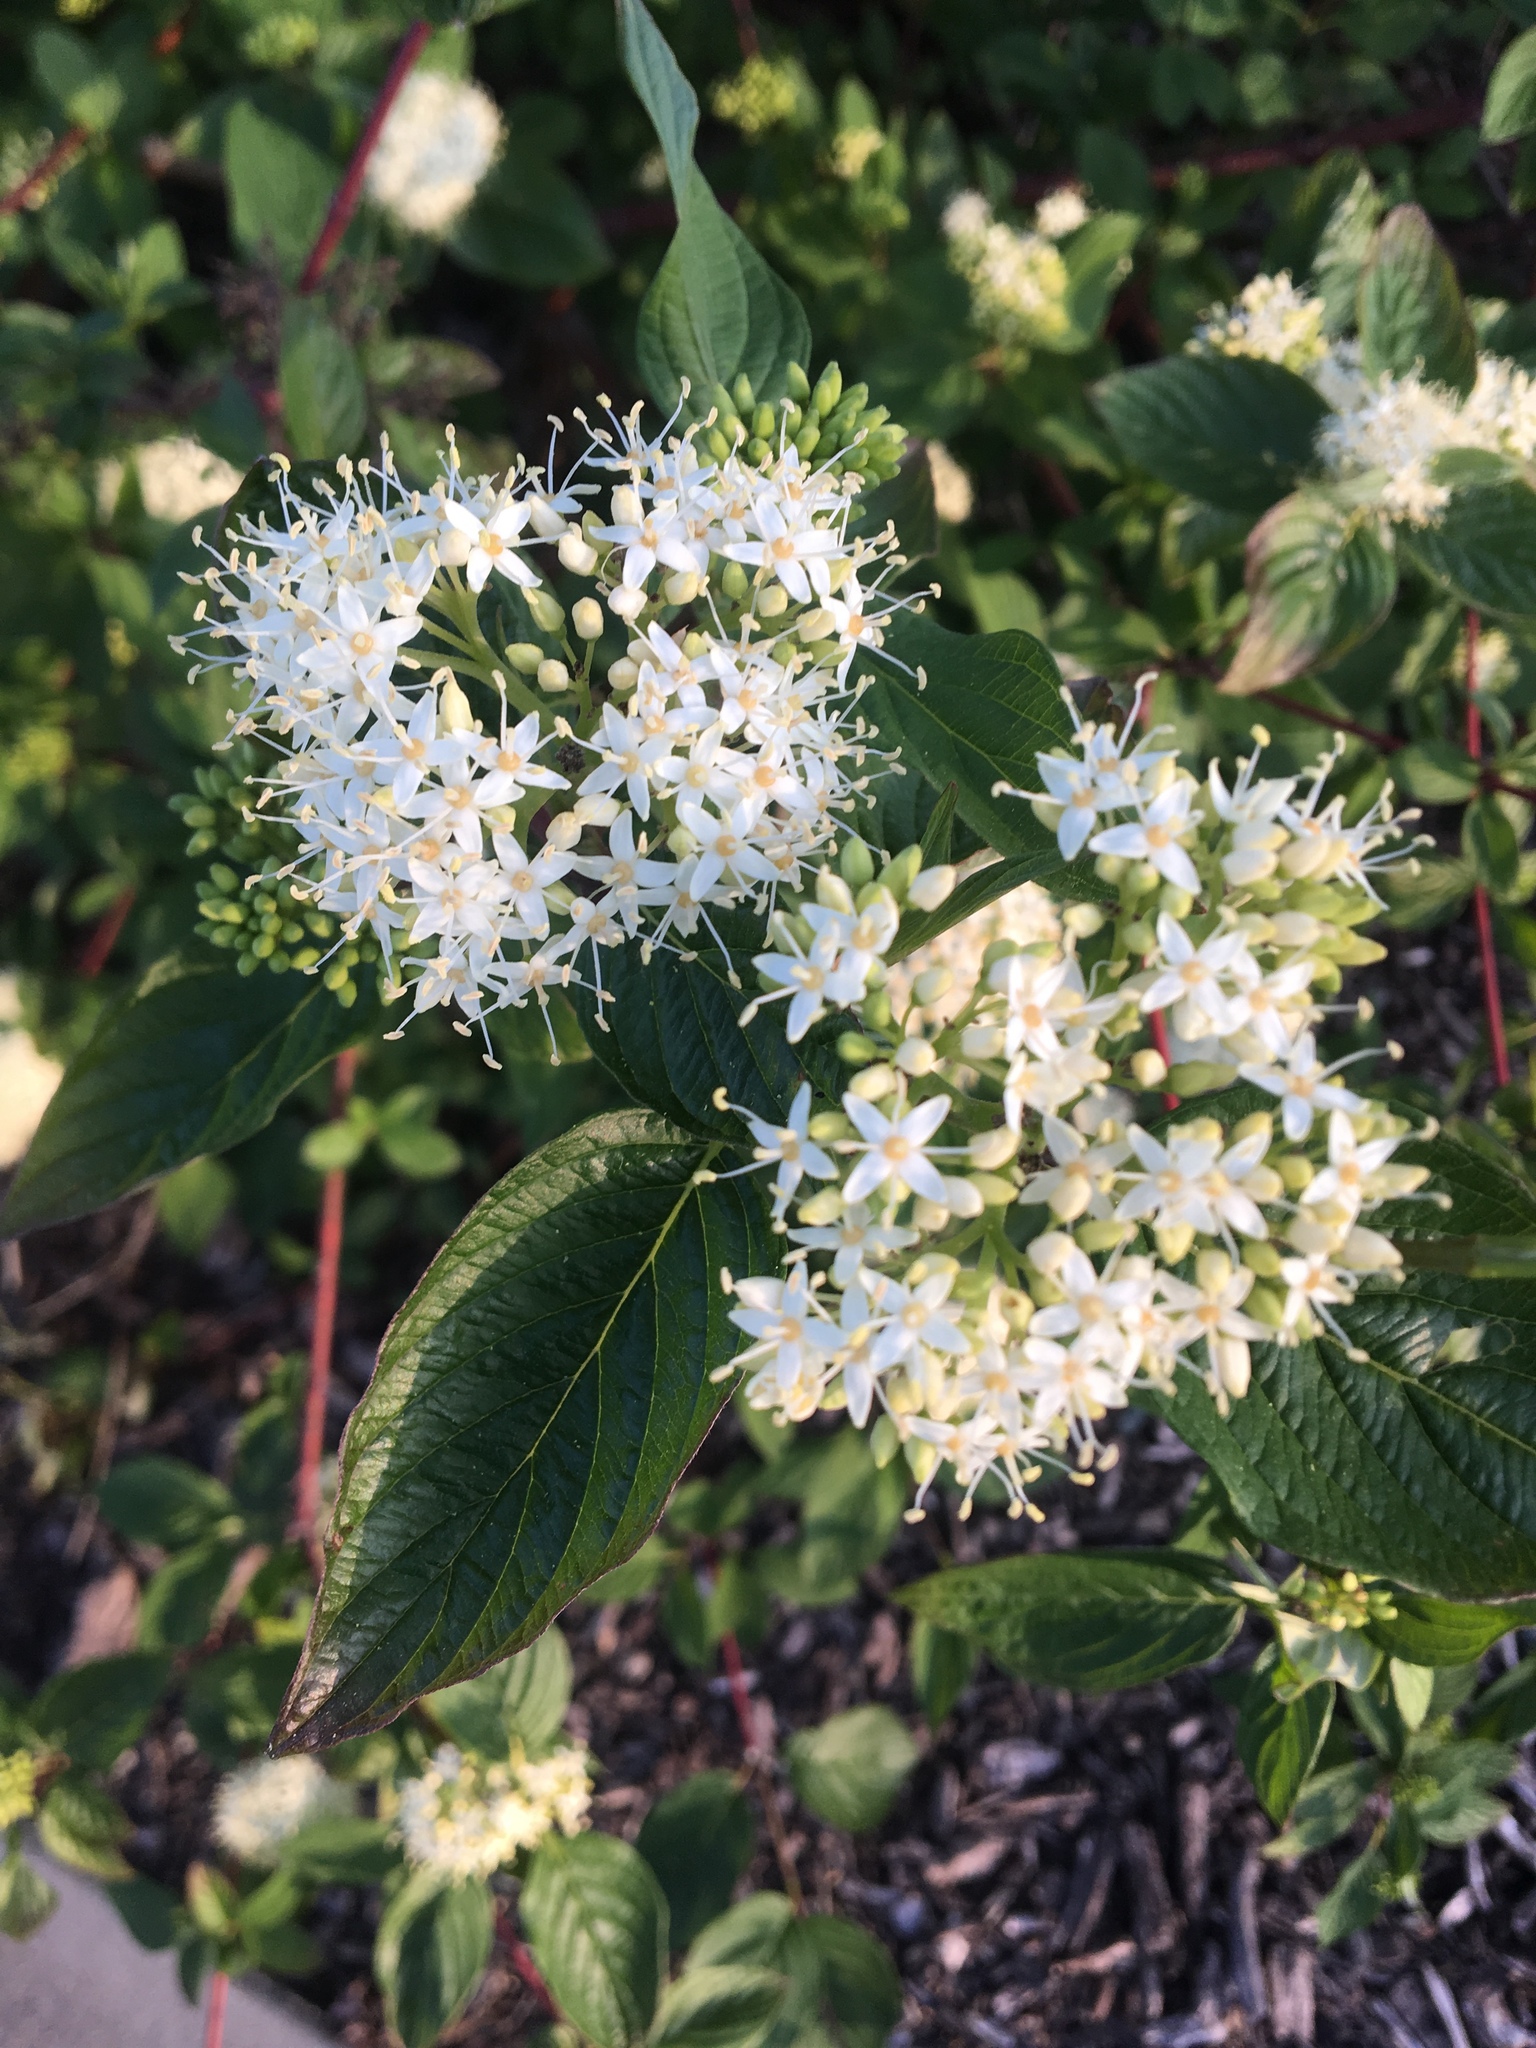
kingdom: Plantae
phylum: Tracheophyta
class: Magnoliopsida
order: Cornales
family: Cornaceae
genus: Cornus
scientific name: Cornus sericea
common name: Red-osier dogwood
